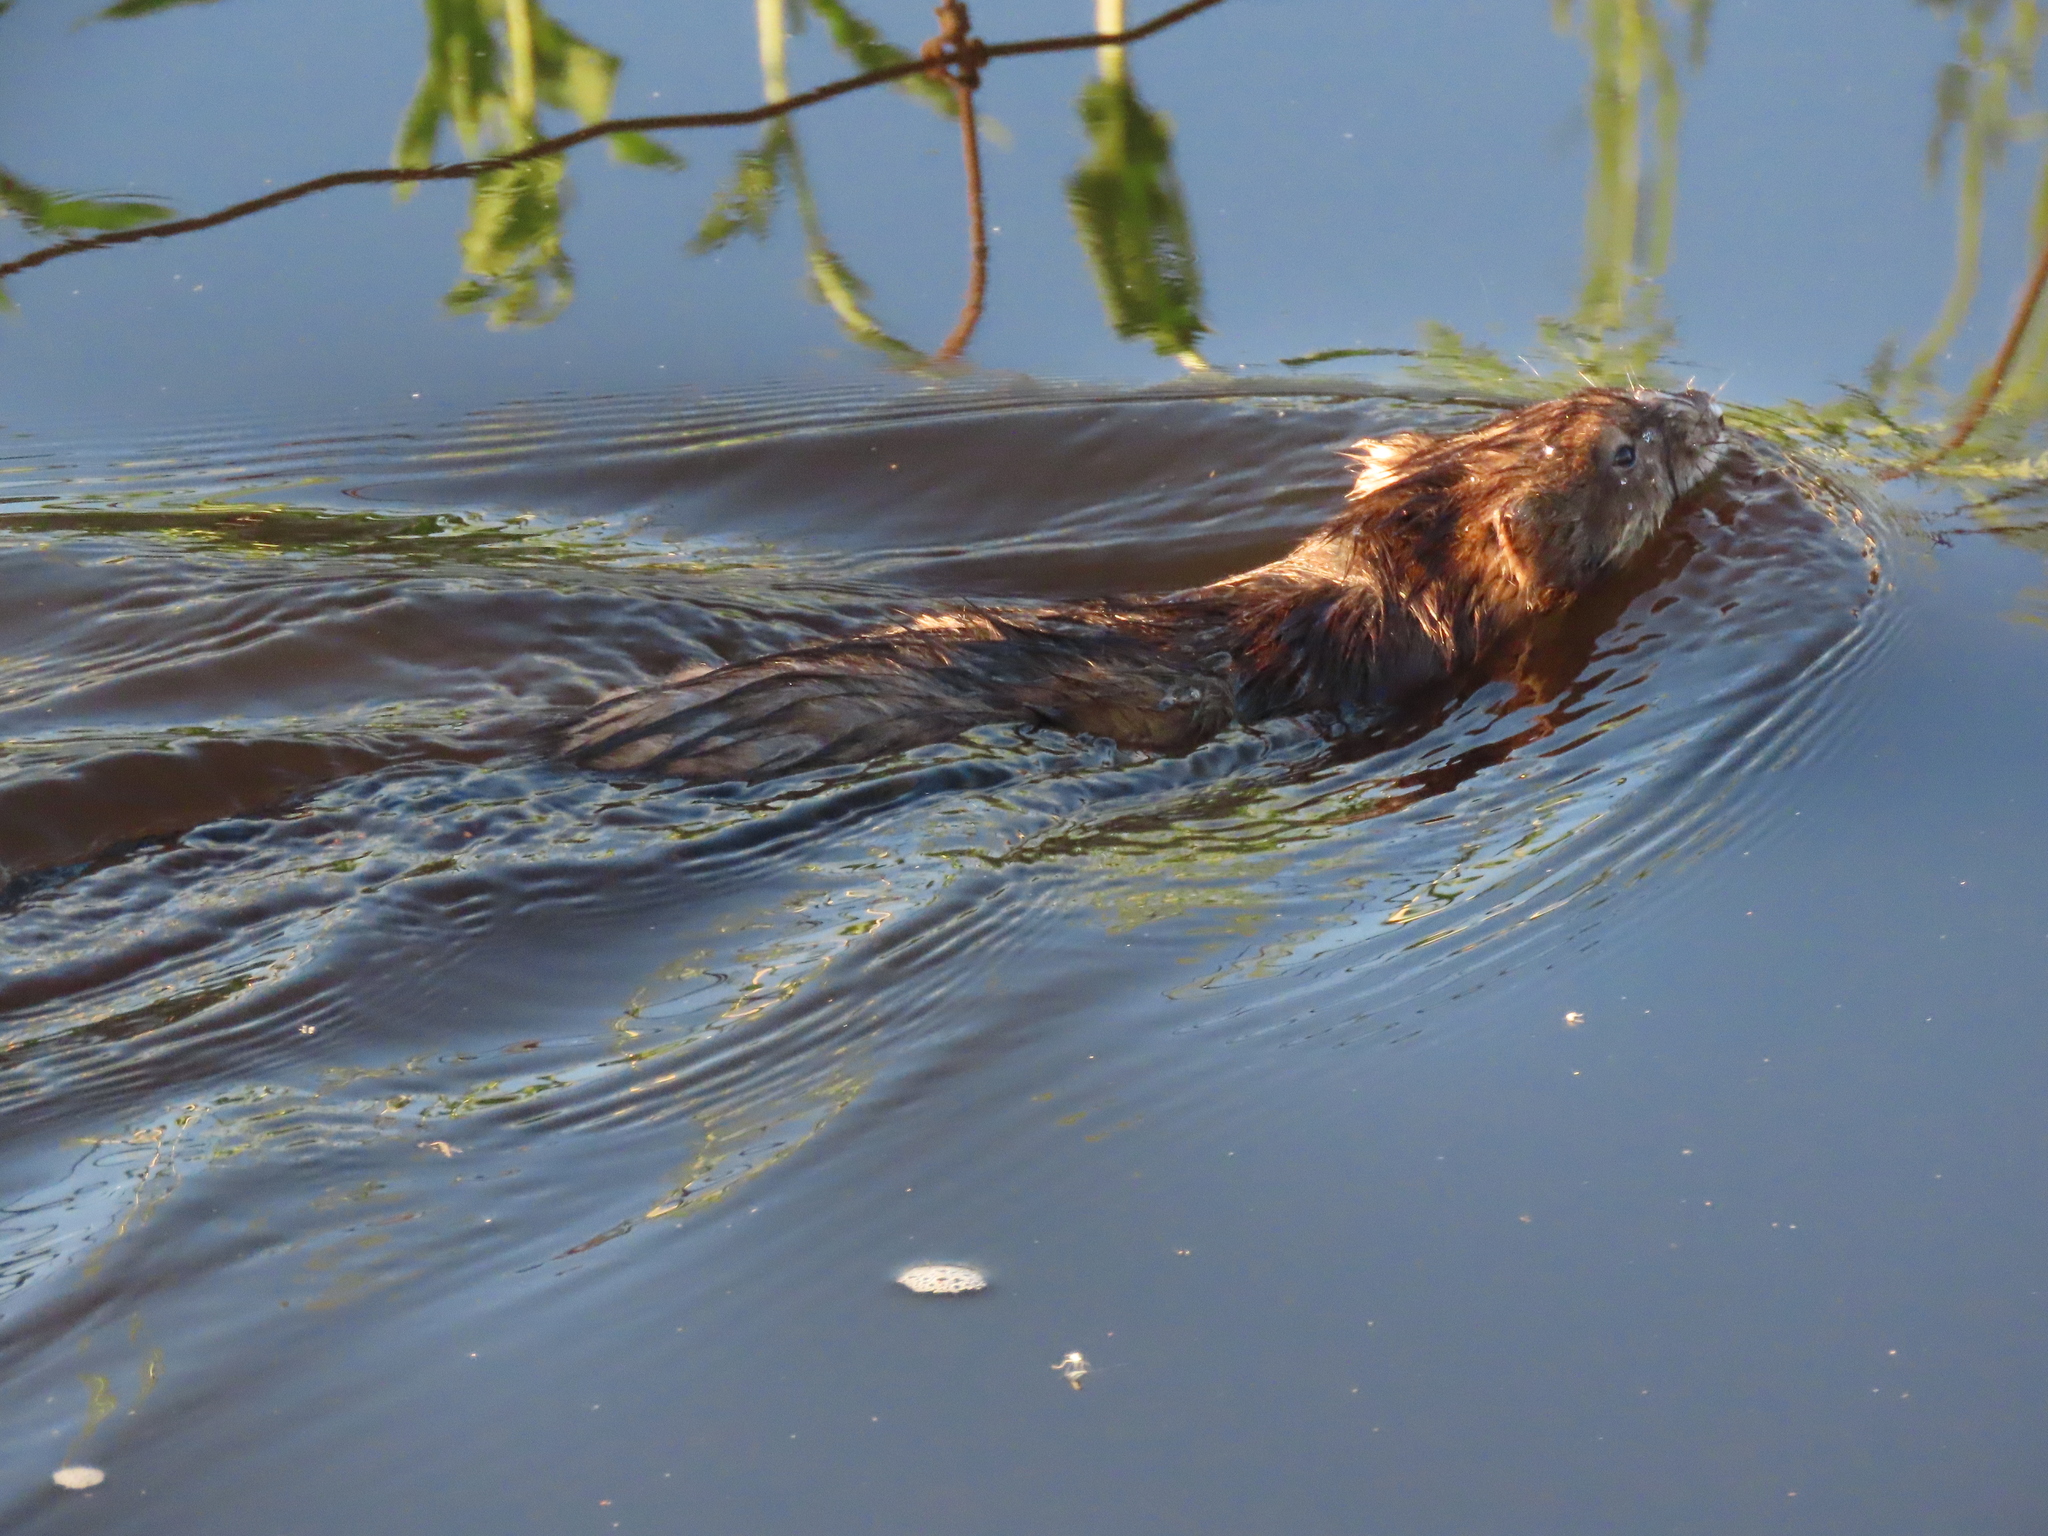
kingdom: Animalia
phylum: Chordata
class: Mammalia
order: Rodentia
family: Cricetidae
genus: Ondatra
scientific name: Ondatra zibethicus
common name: Muskrat
